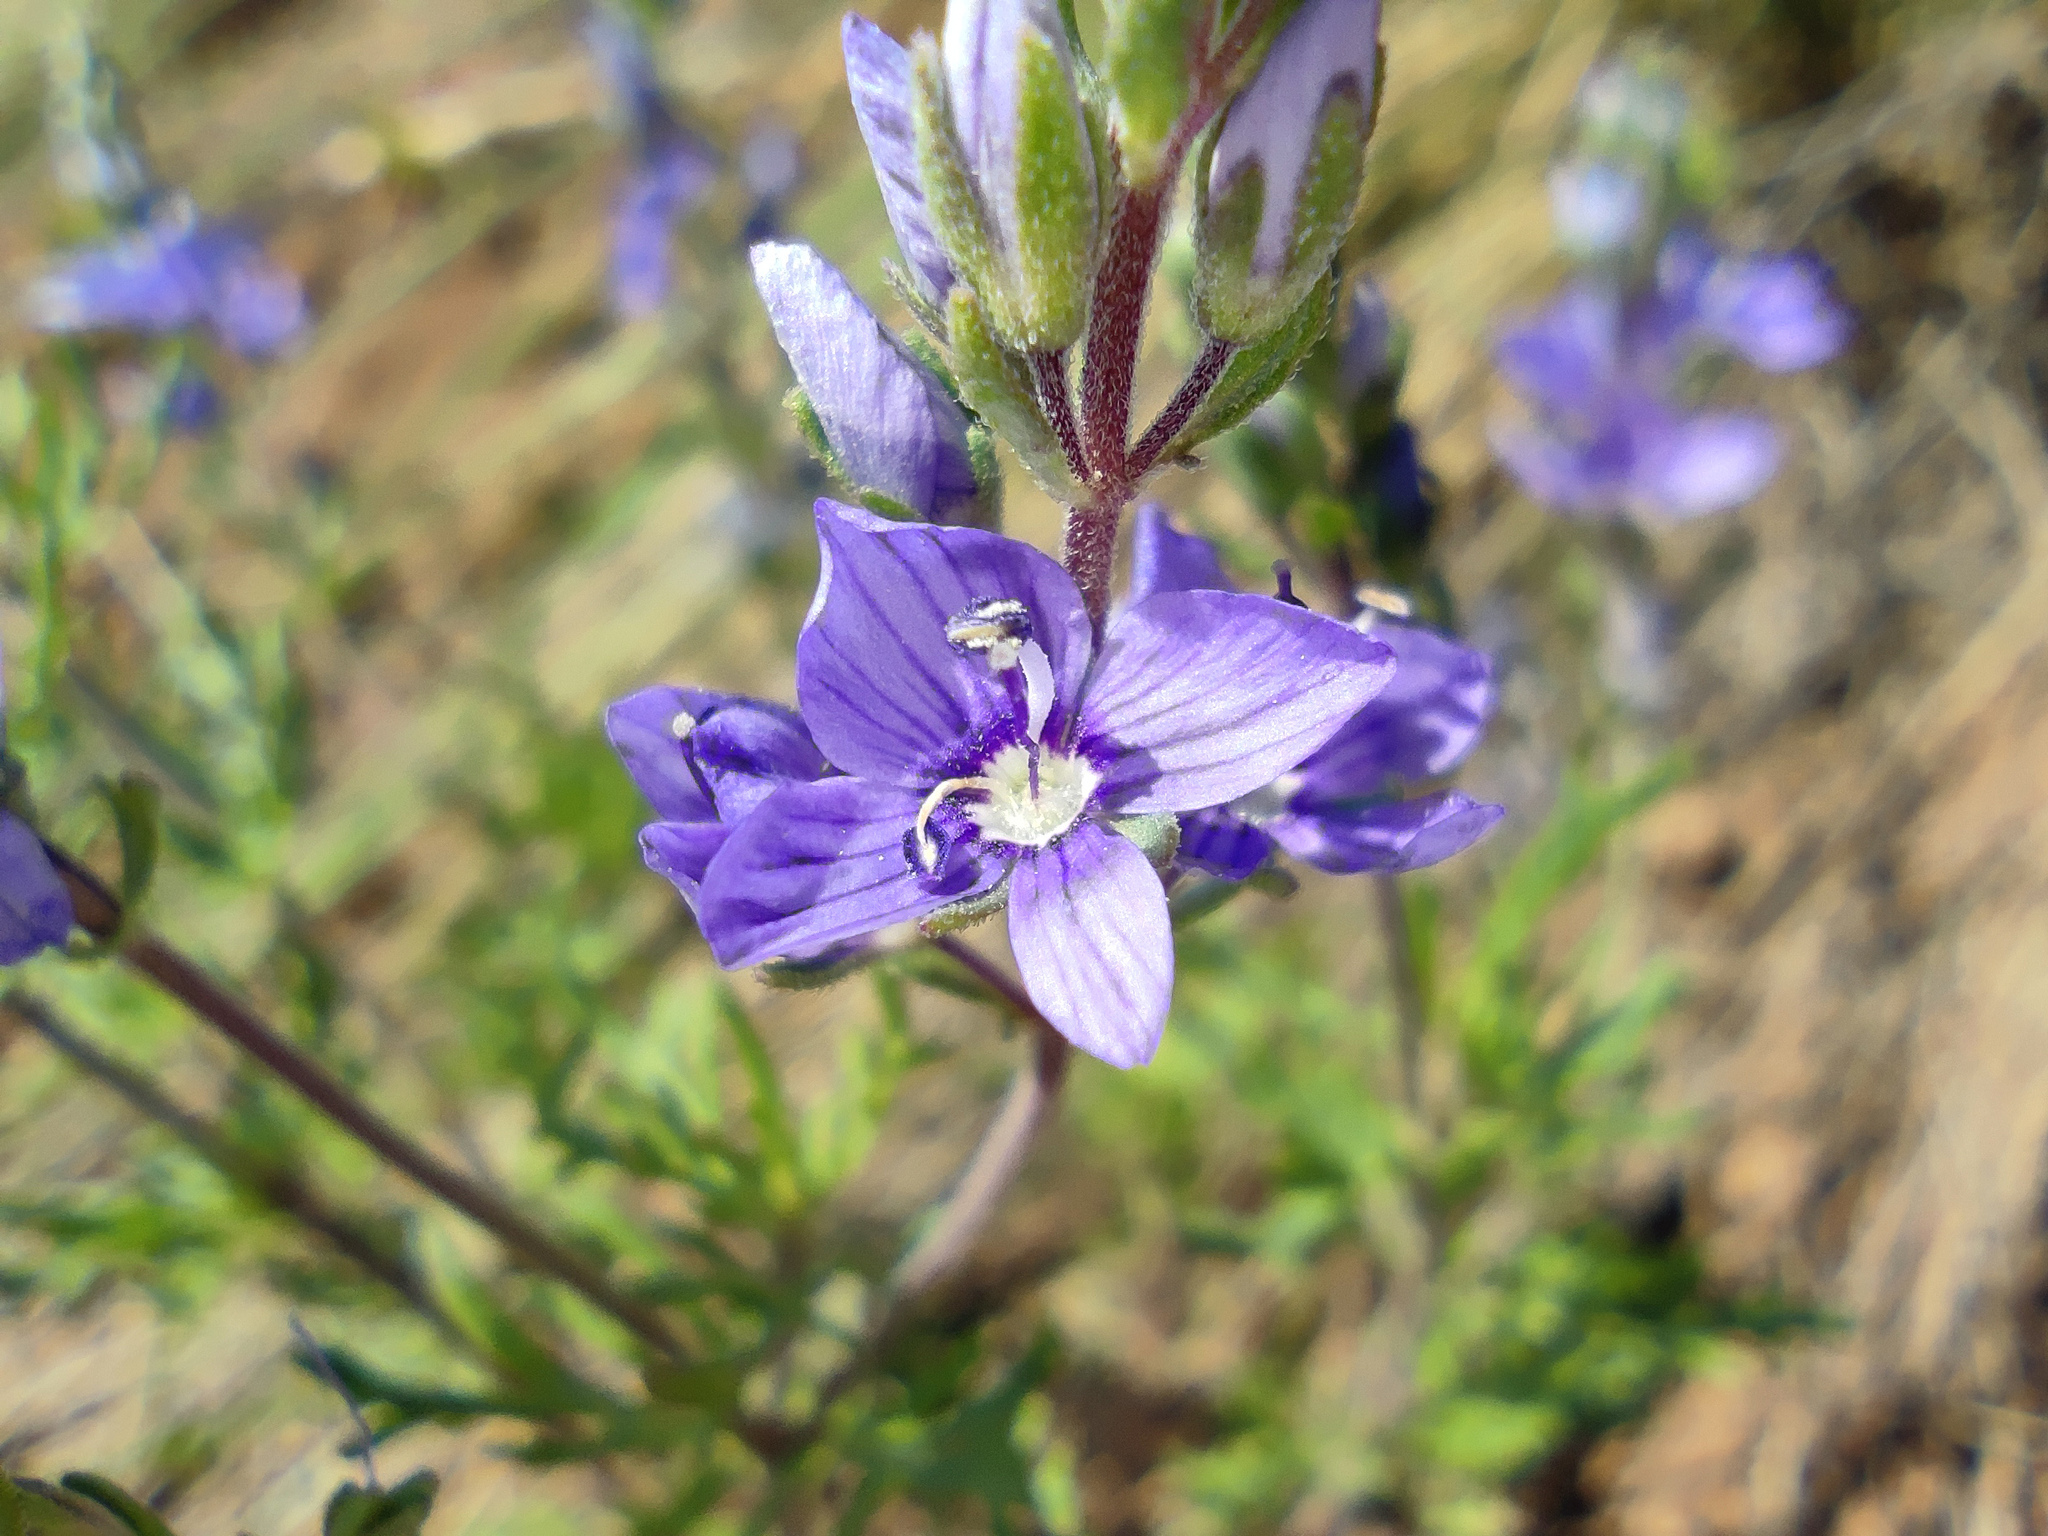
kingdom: Plantae
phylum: Tracheophyta
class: Magnoliopsida
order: Lamiales
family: Plantaginaceae
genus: Veronica
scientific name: Veronica capsellicarpa
